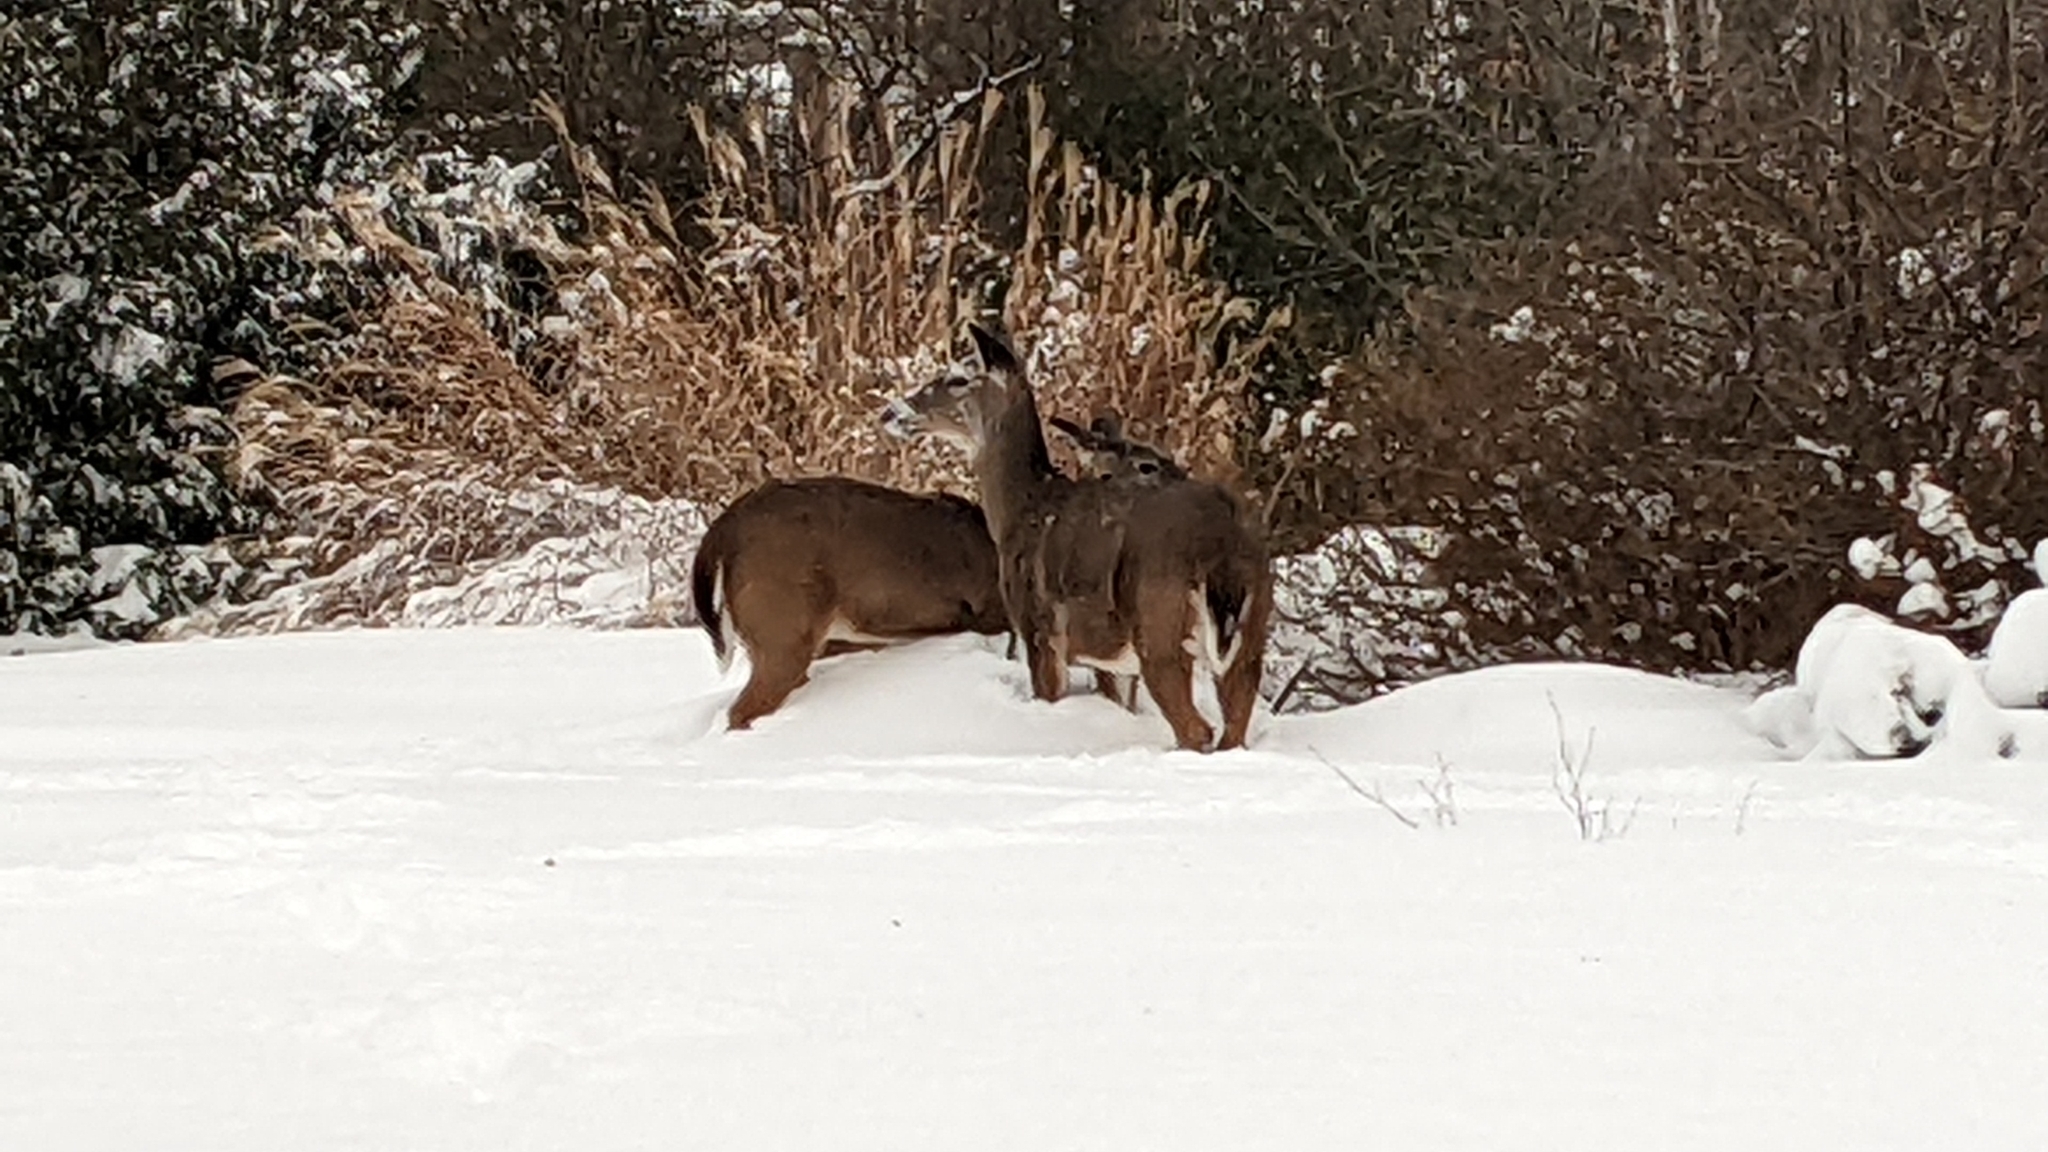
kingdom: Animalia
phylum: Chordata
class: Mammalia
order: Artiodactyla
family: Cervidae
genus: Odocoileus
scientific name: Odocoileus virginianus
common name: White-tailed deer
